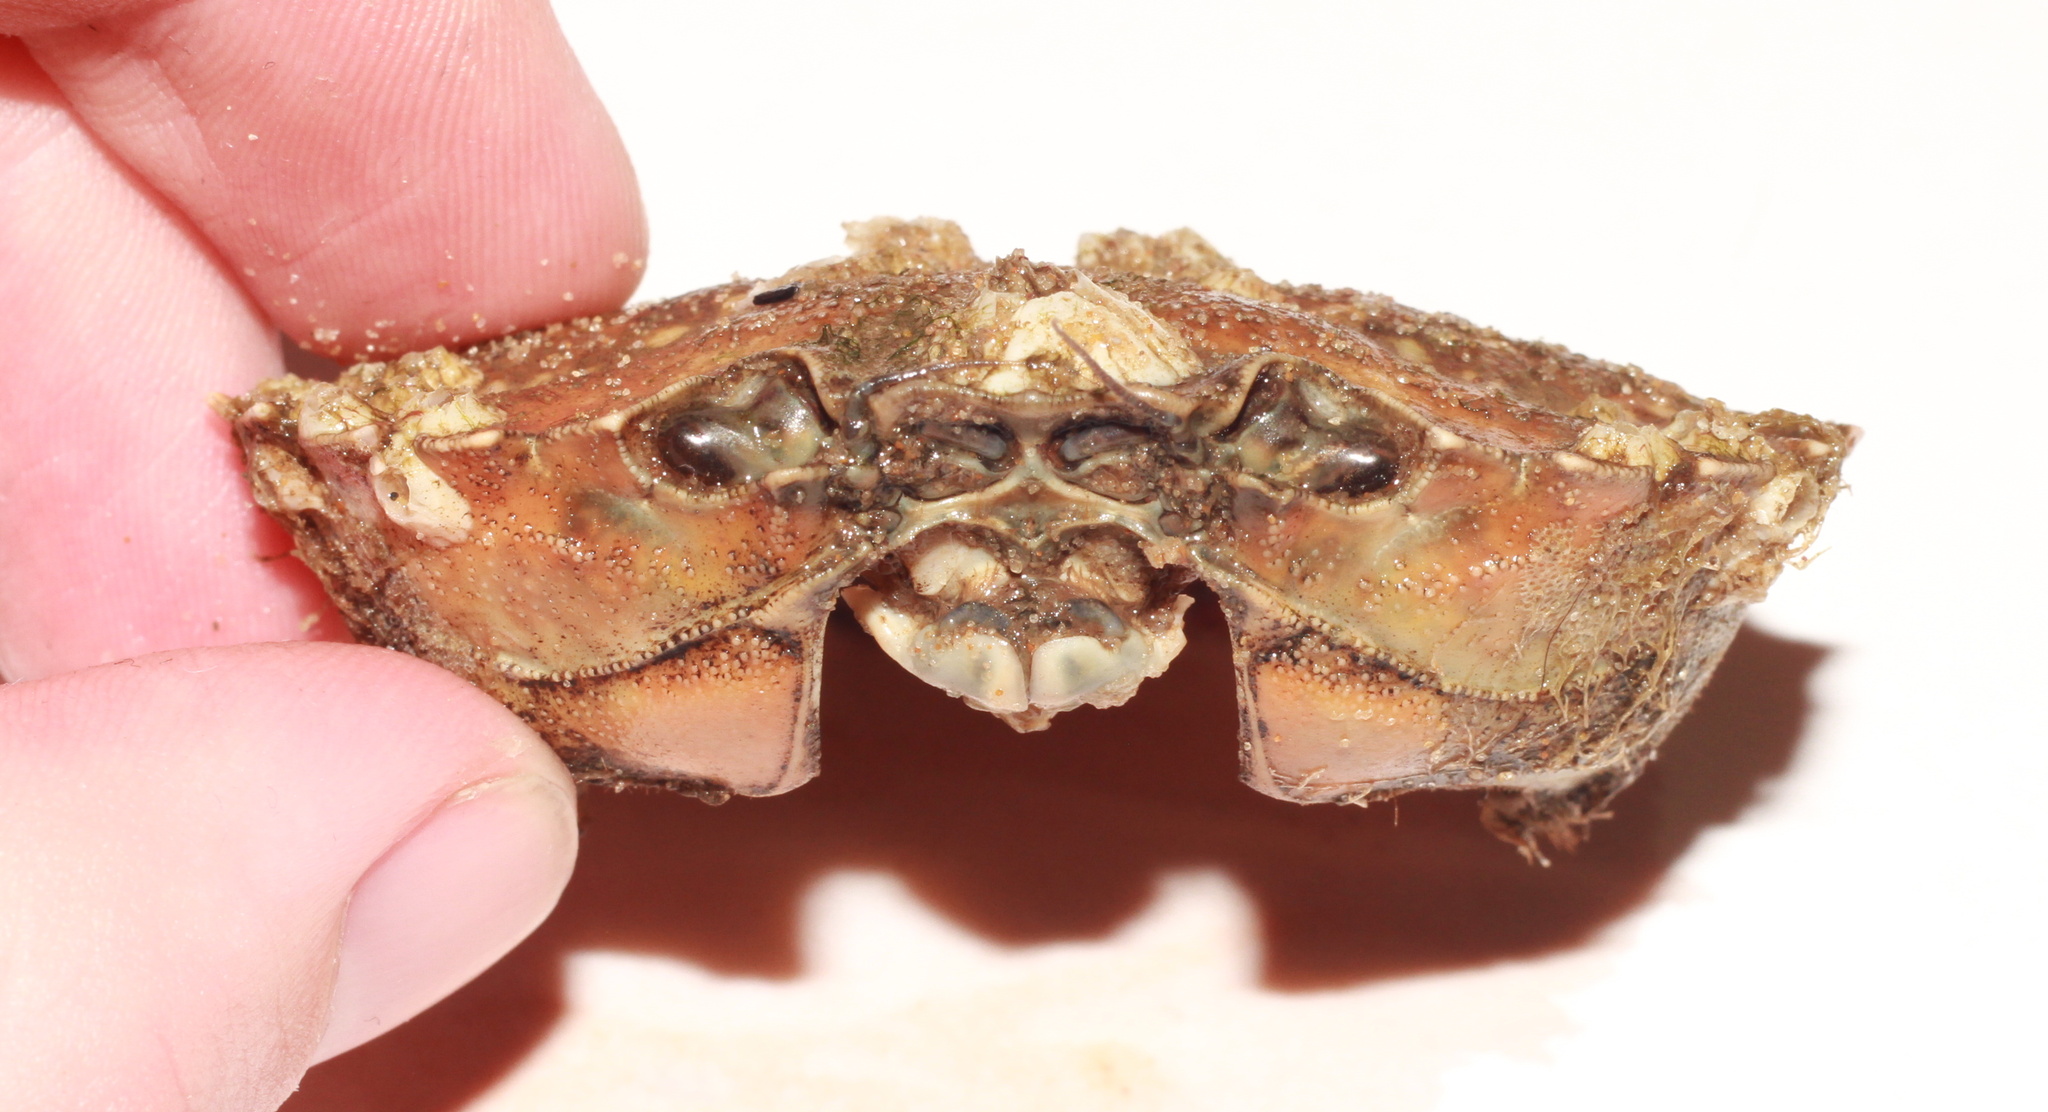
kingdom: Animalia
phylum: Arthropoda
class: Malacostraca
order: Decapoda
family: Carcinidae
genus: Carcinus
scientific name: Carcinus maenas
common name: European green crab
